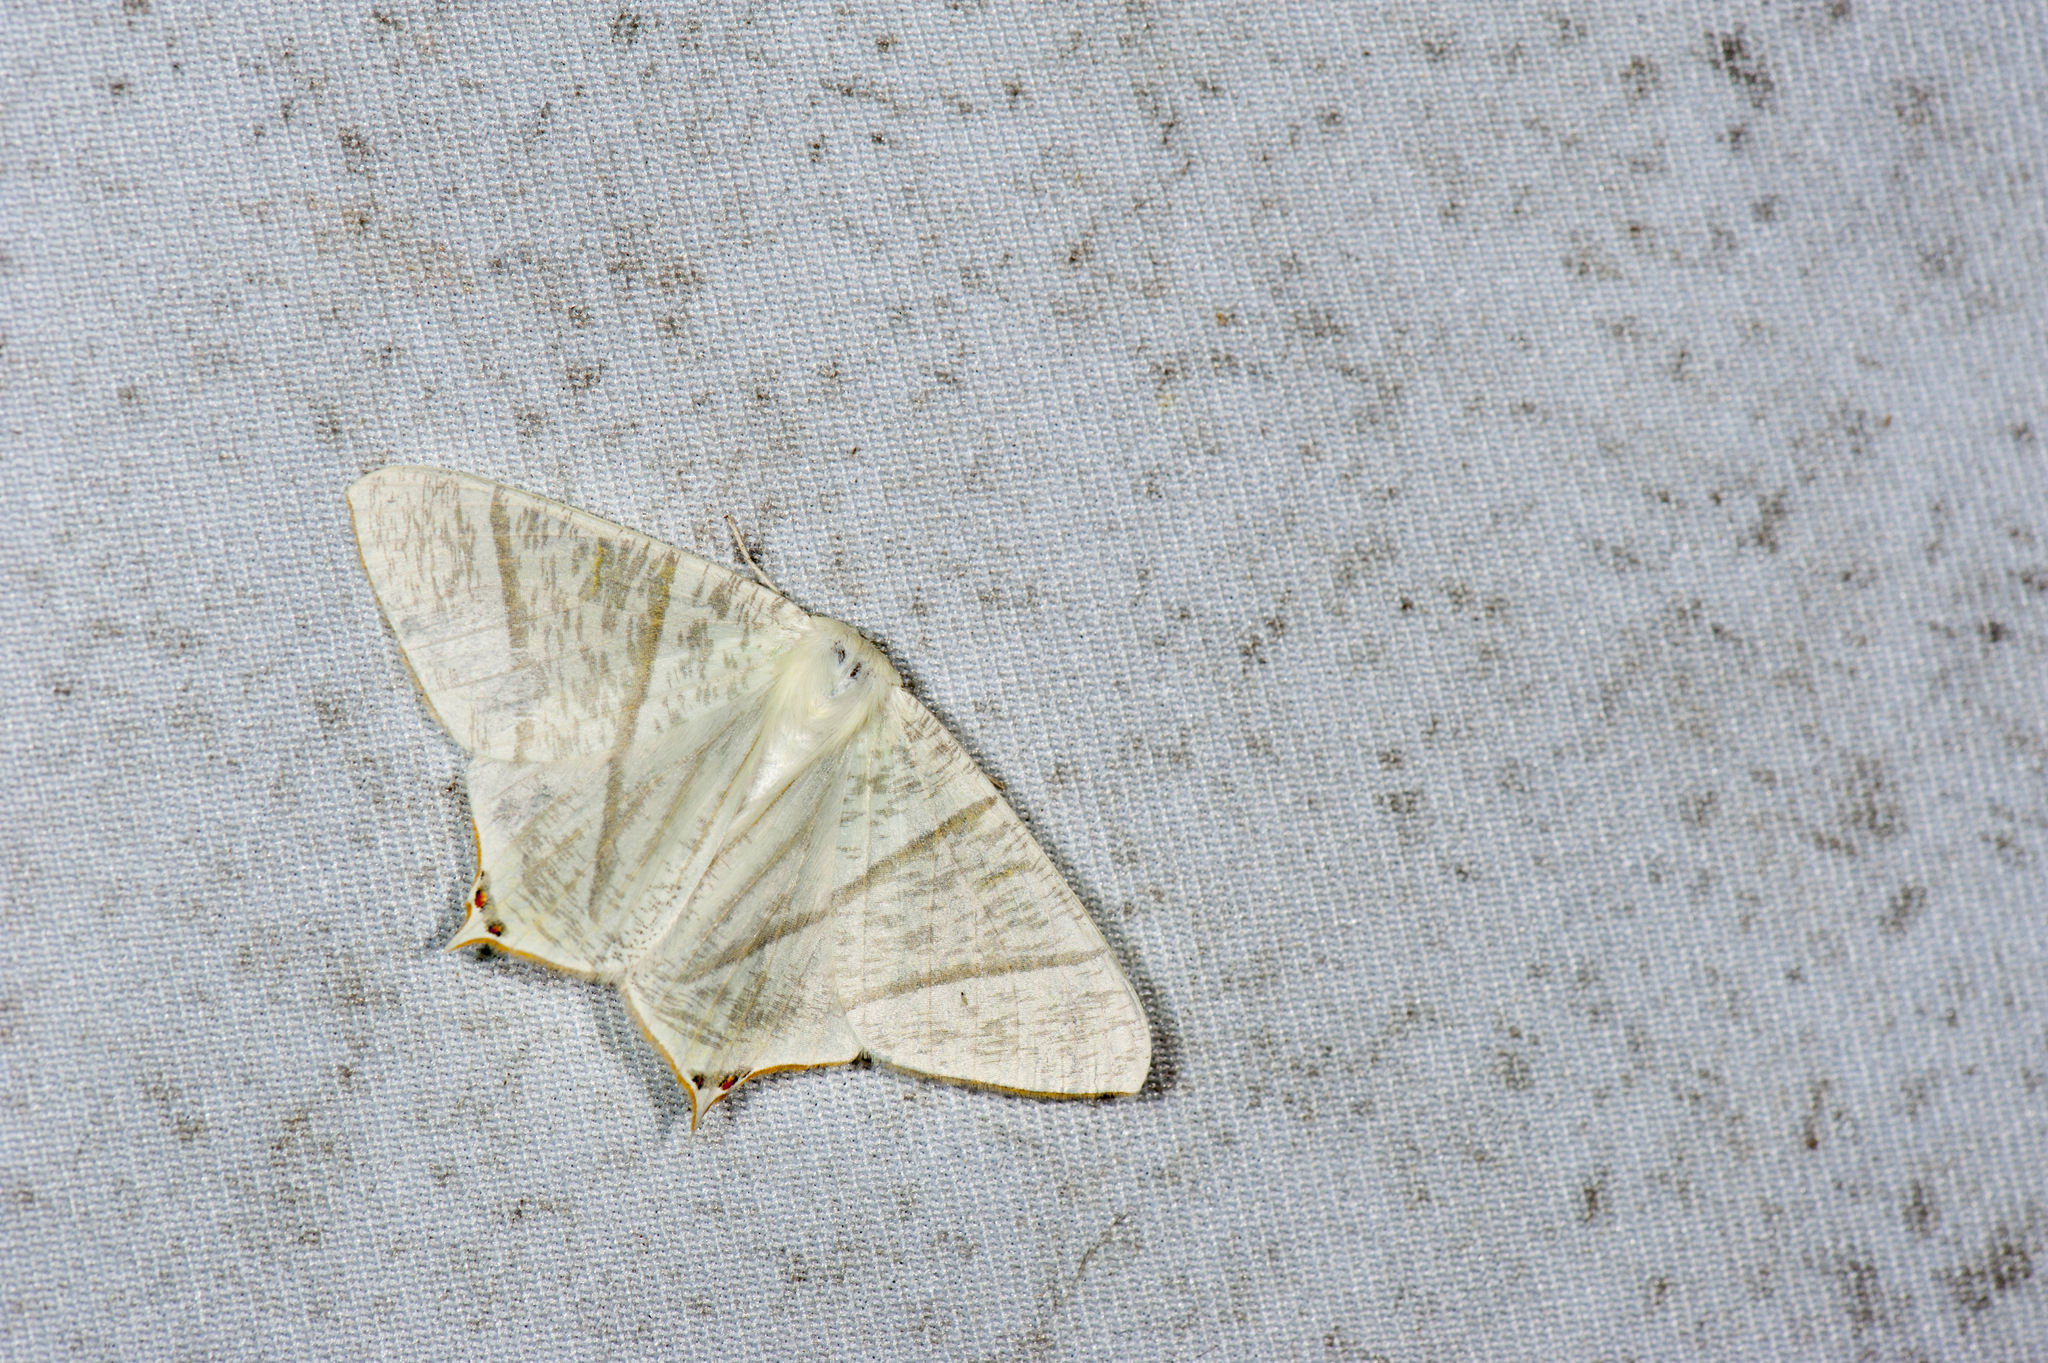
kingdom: Animalia
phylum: Arthropoda
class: Insecta
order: Lepidoptera
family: Geometridae
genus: Ourapteryx
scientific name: Ourapteryx inspersa
